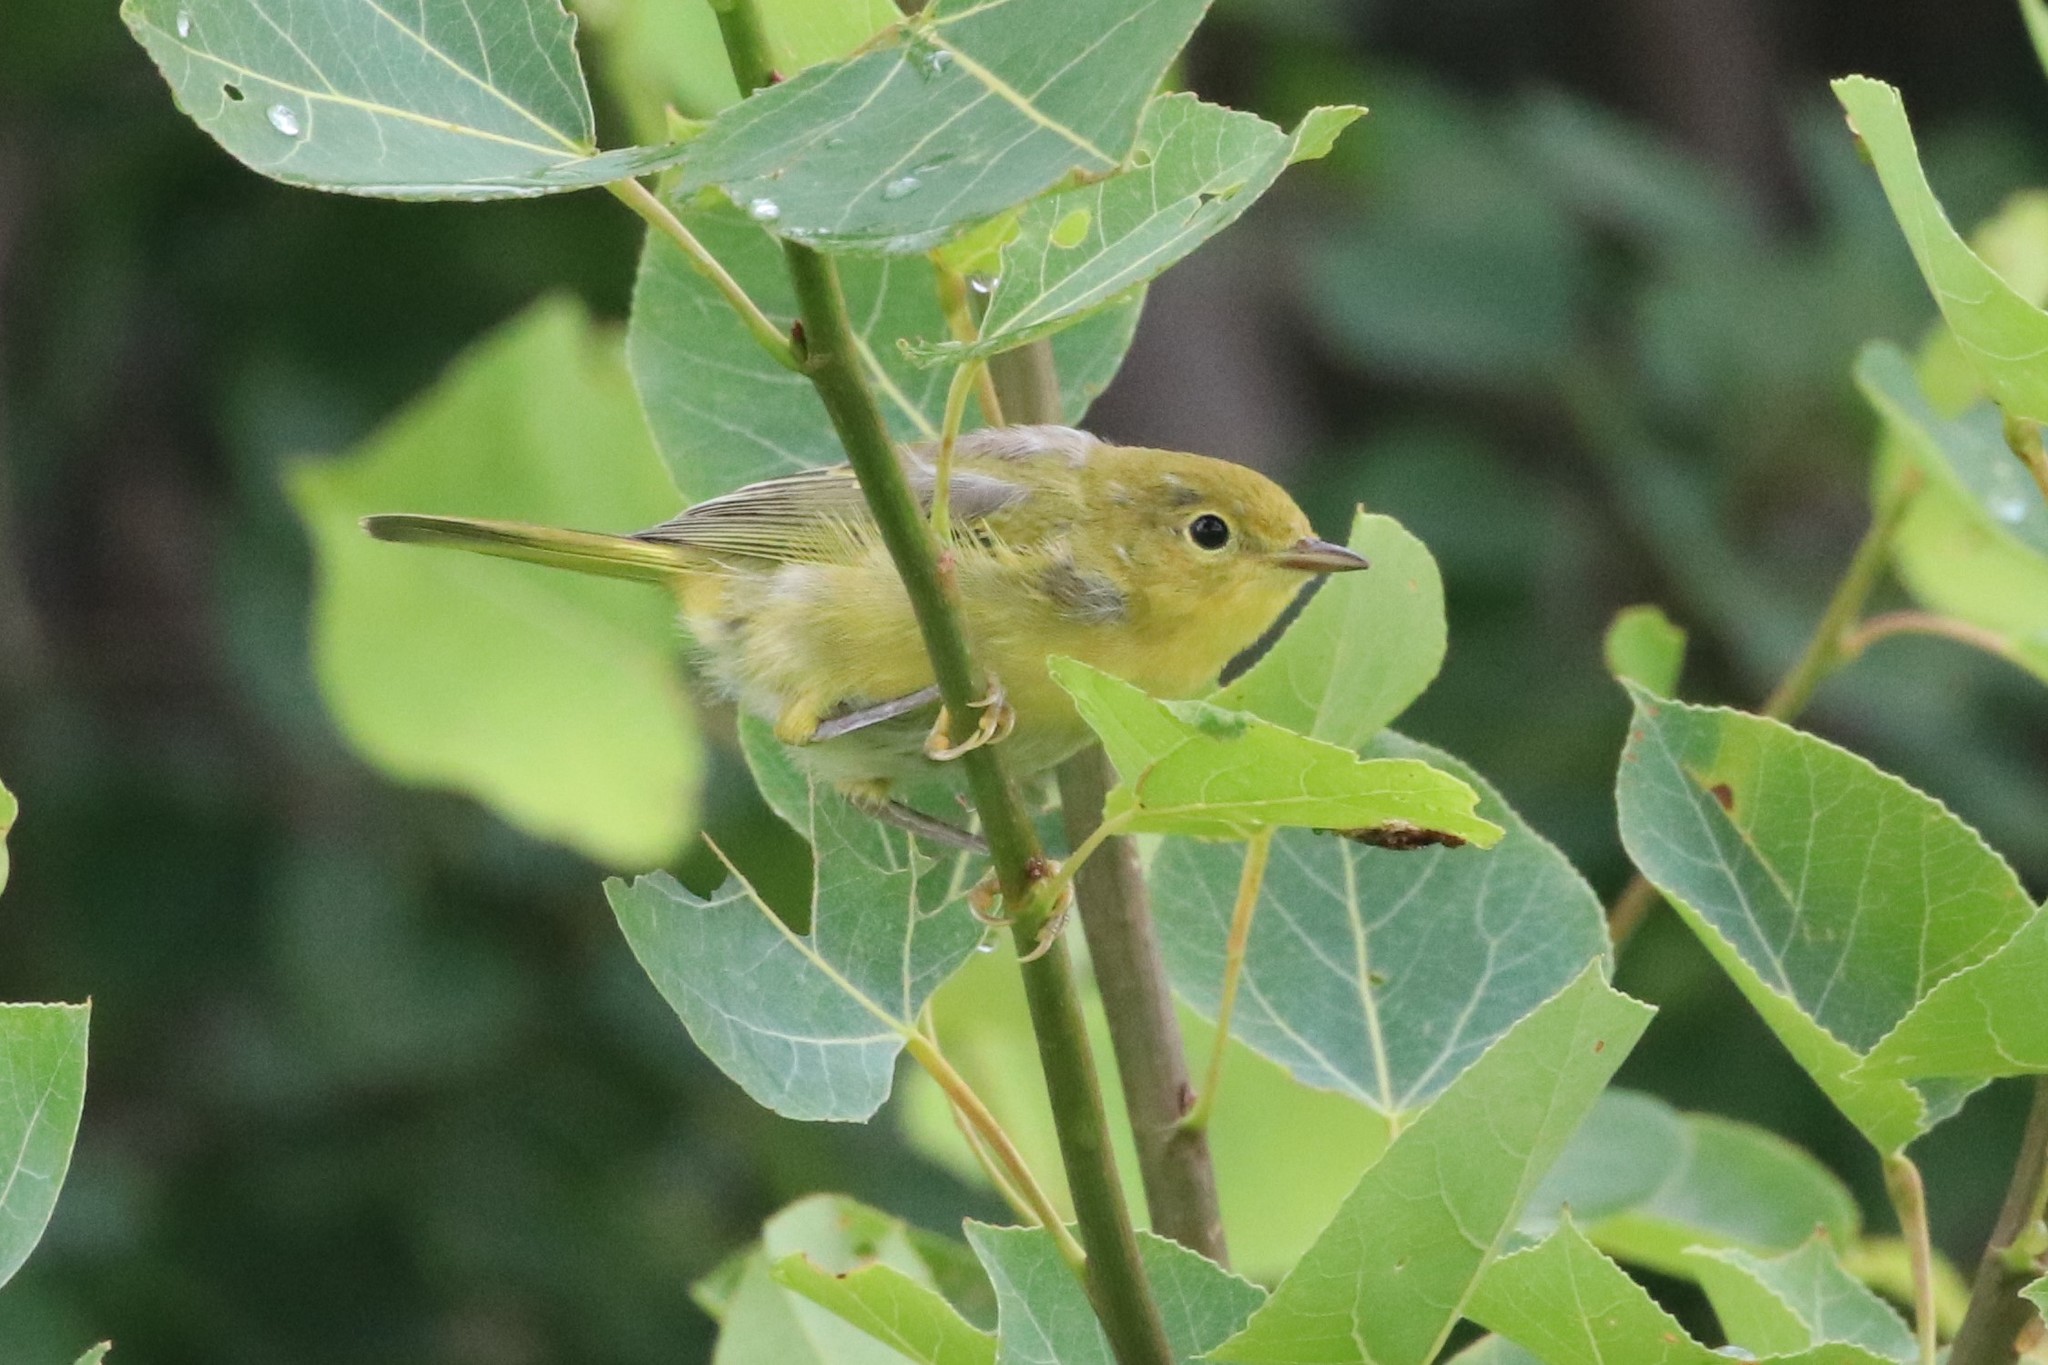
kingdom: Animalia
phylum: Chordata
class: Aves
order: Passeriformes
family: Parulidae
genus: Setophaga
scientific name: Setophaga petechia
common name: Yellow warbler
